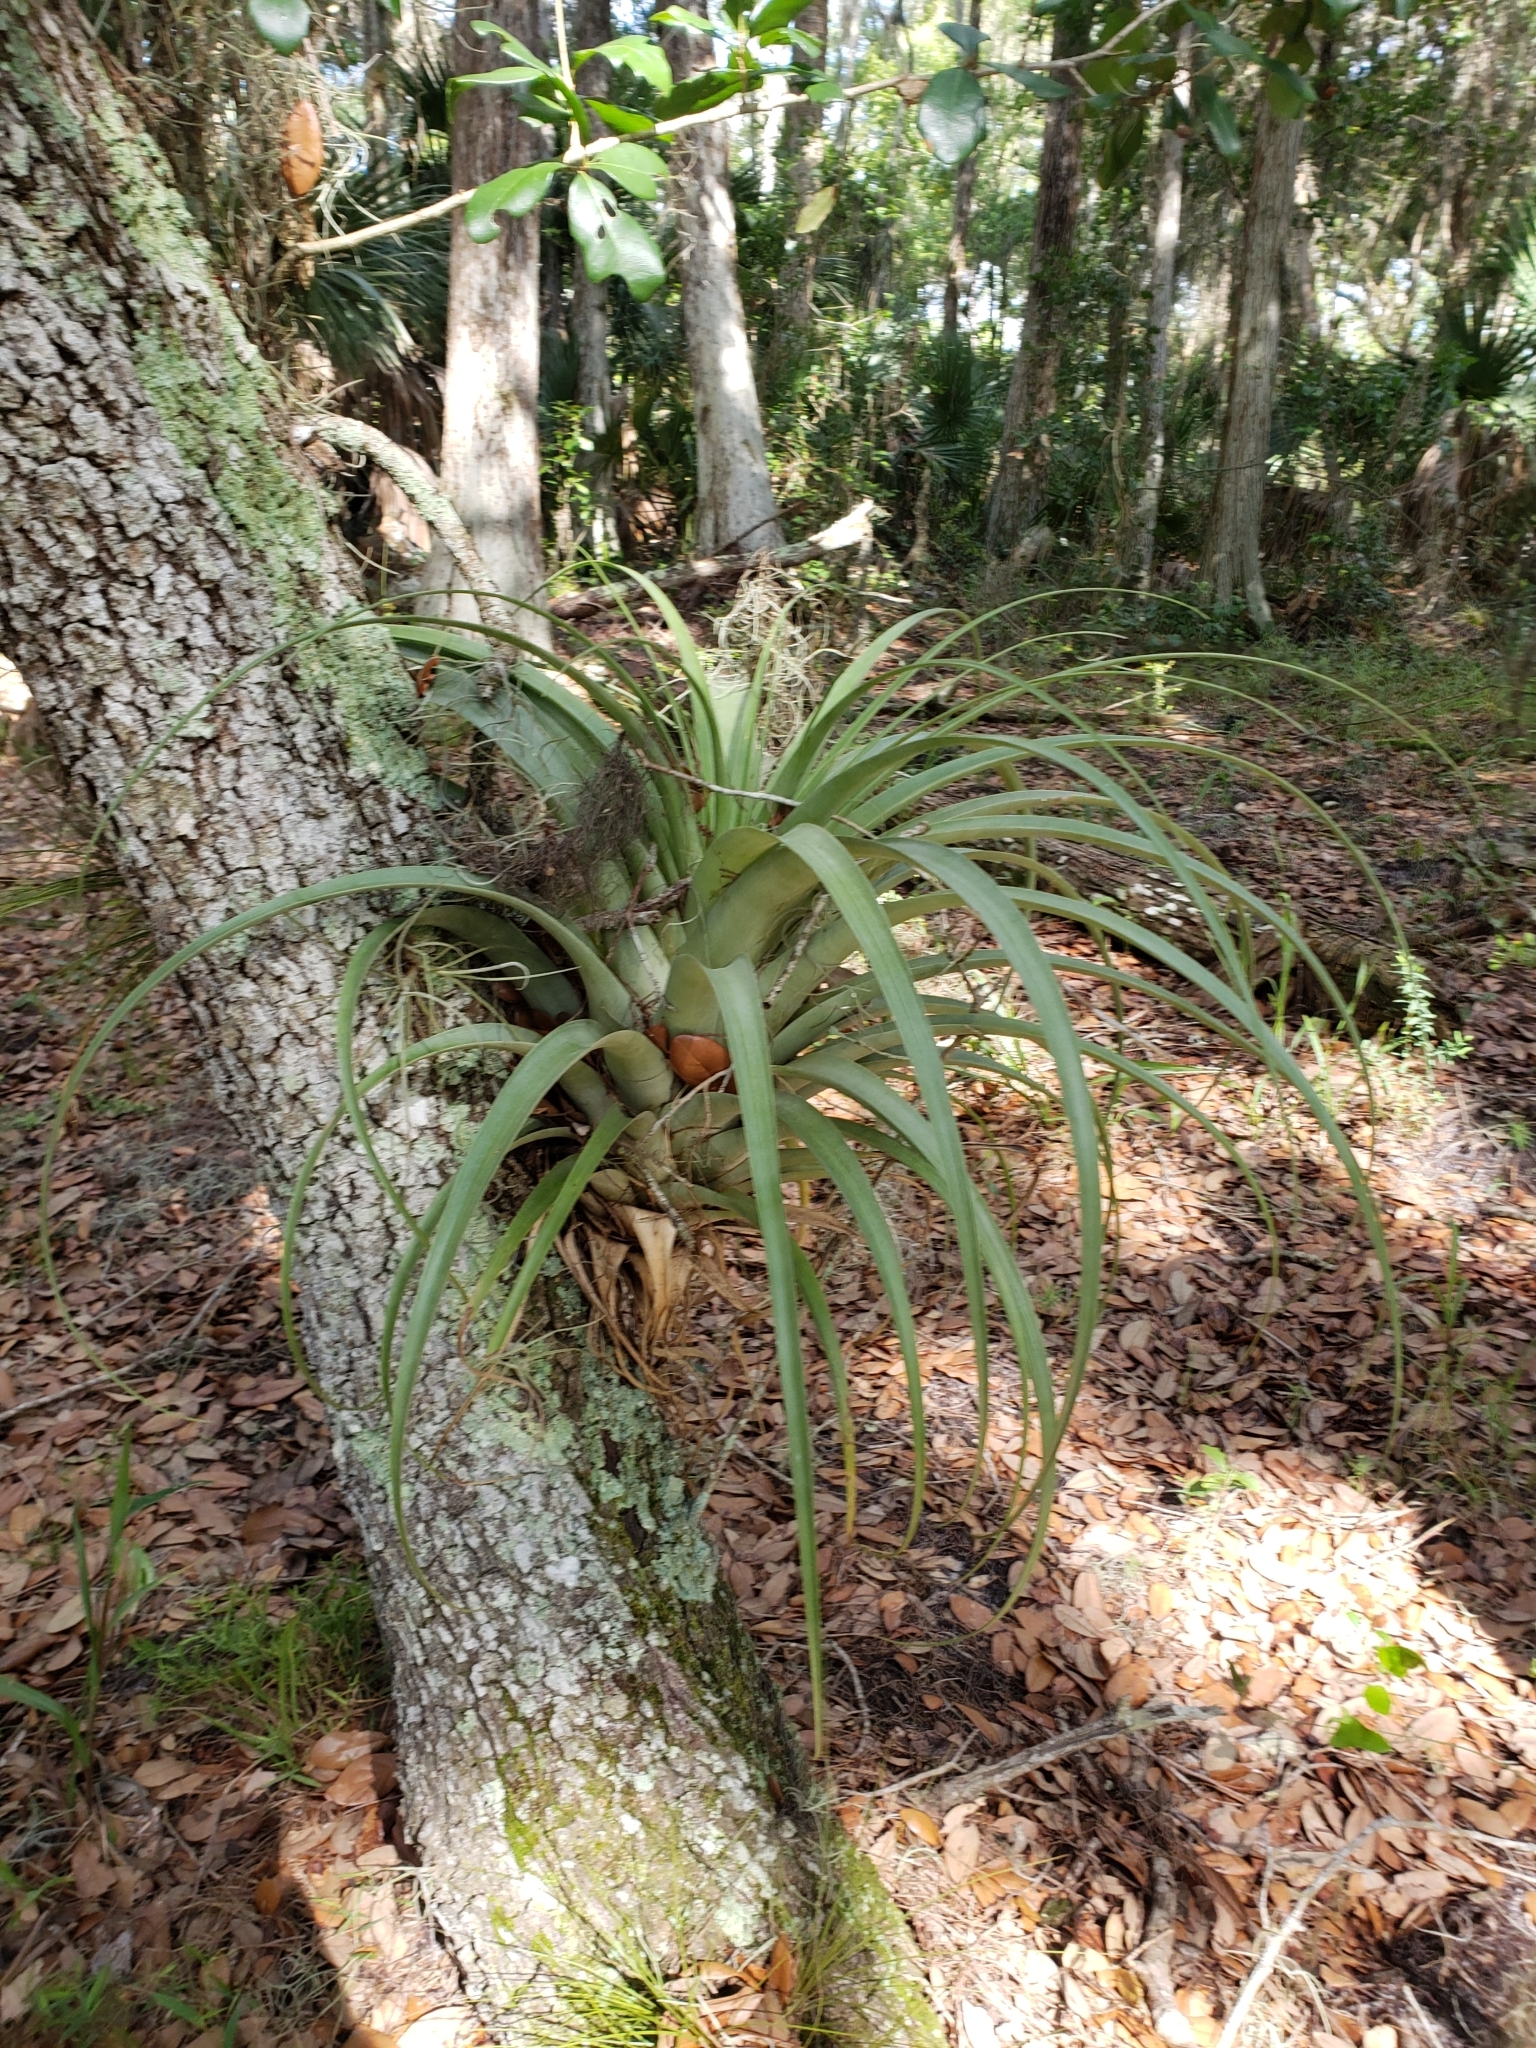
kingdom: Plantae
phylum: Tracheophyta
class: Liliopsida
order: Poales
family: Bromeliaceae
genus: Tillandsia
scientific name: Tillandsia utriculata
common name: Wild pine
